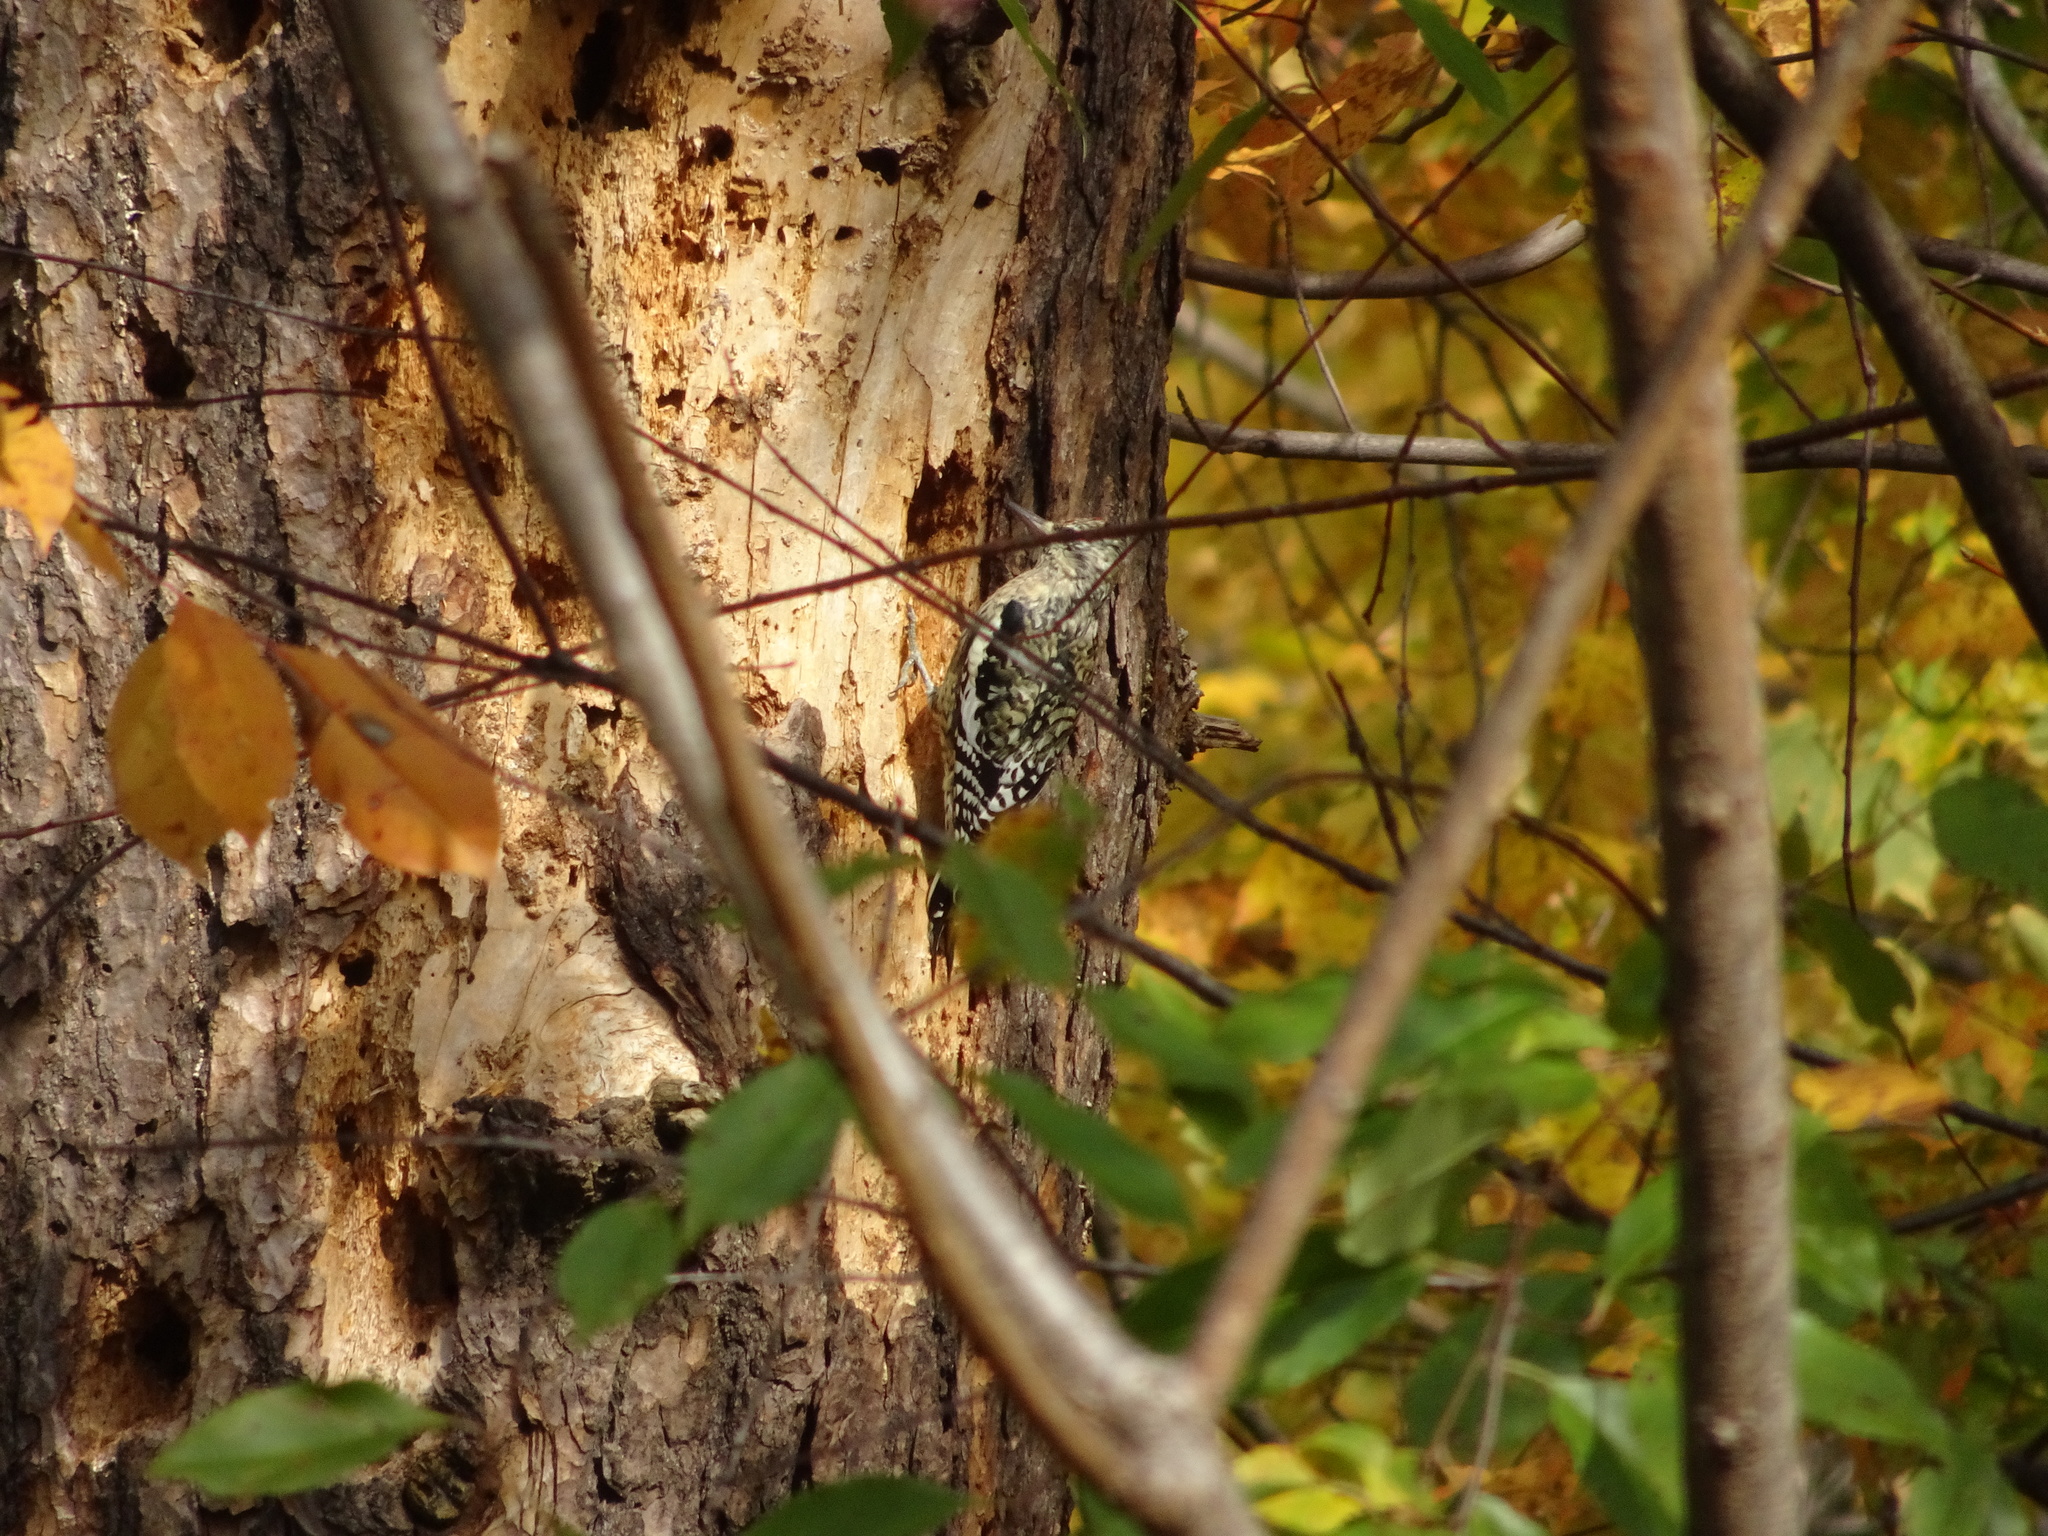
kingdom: Animalia
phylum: Chordata
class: Aves
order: Piciformes
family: Picidae
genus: Sphyrapicus
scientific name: Sphyrapicus varius
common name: Yellow-bellied sapsucker
